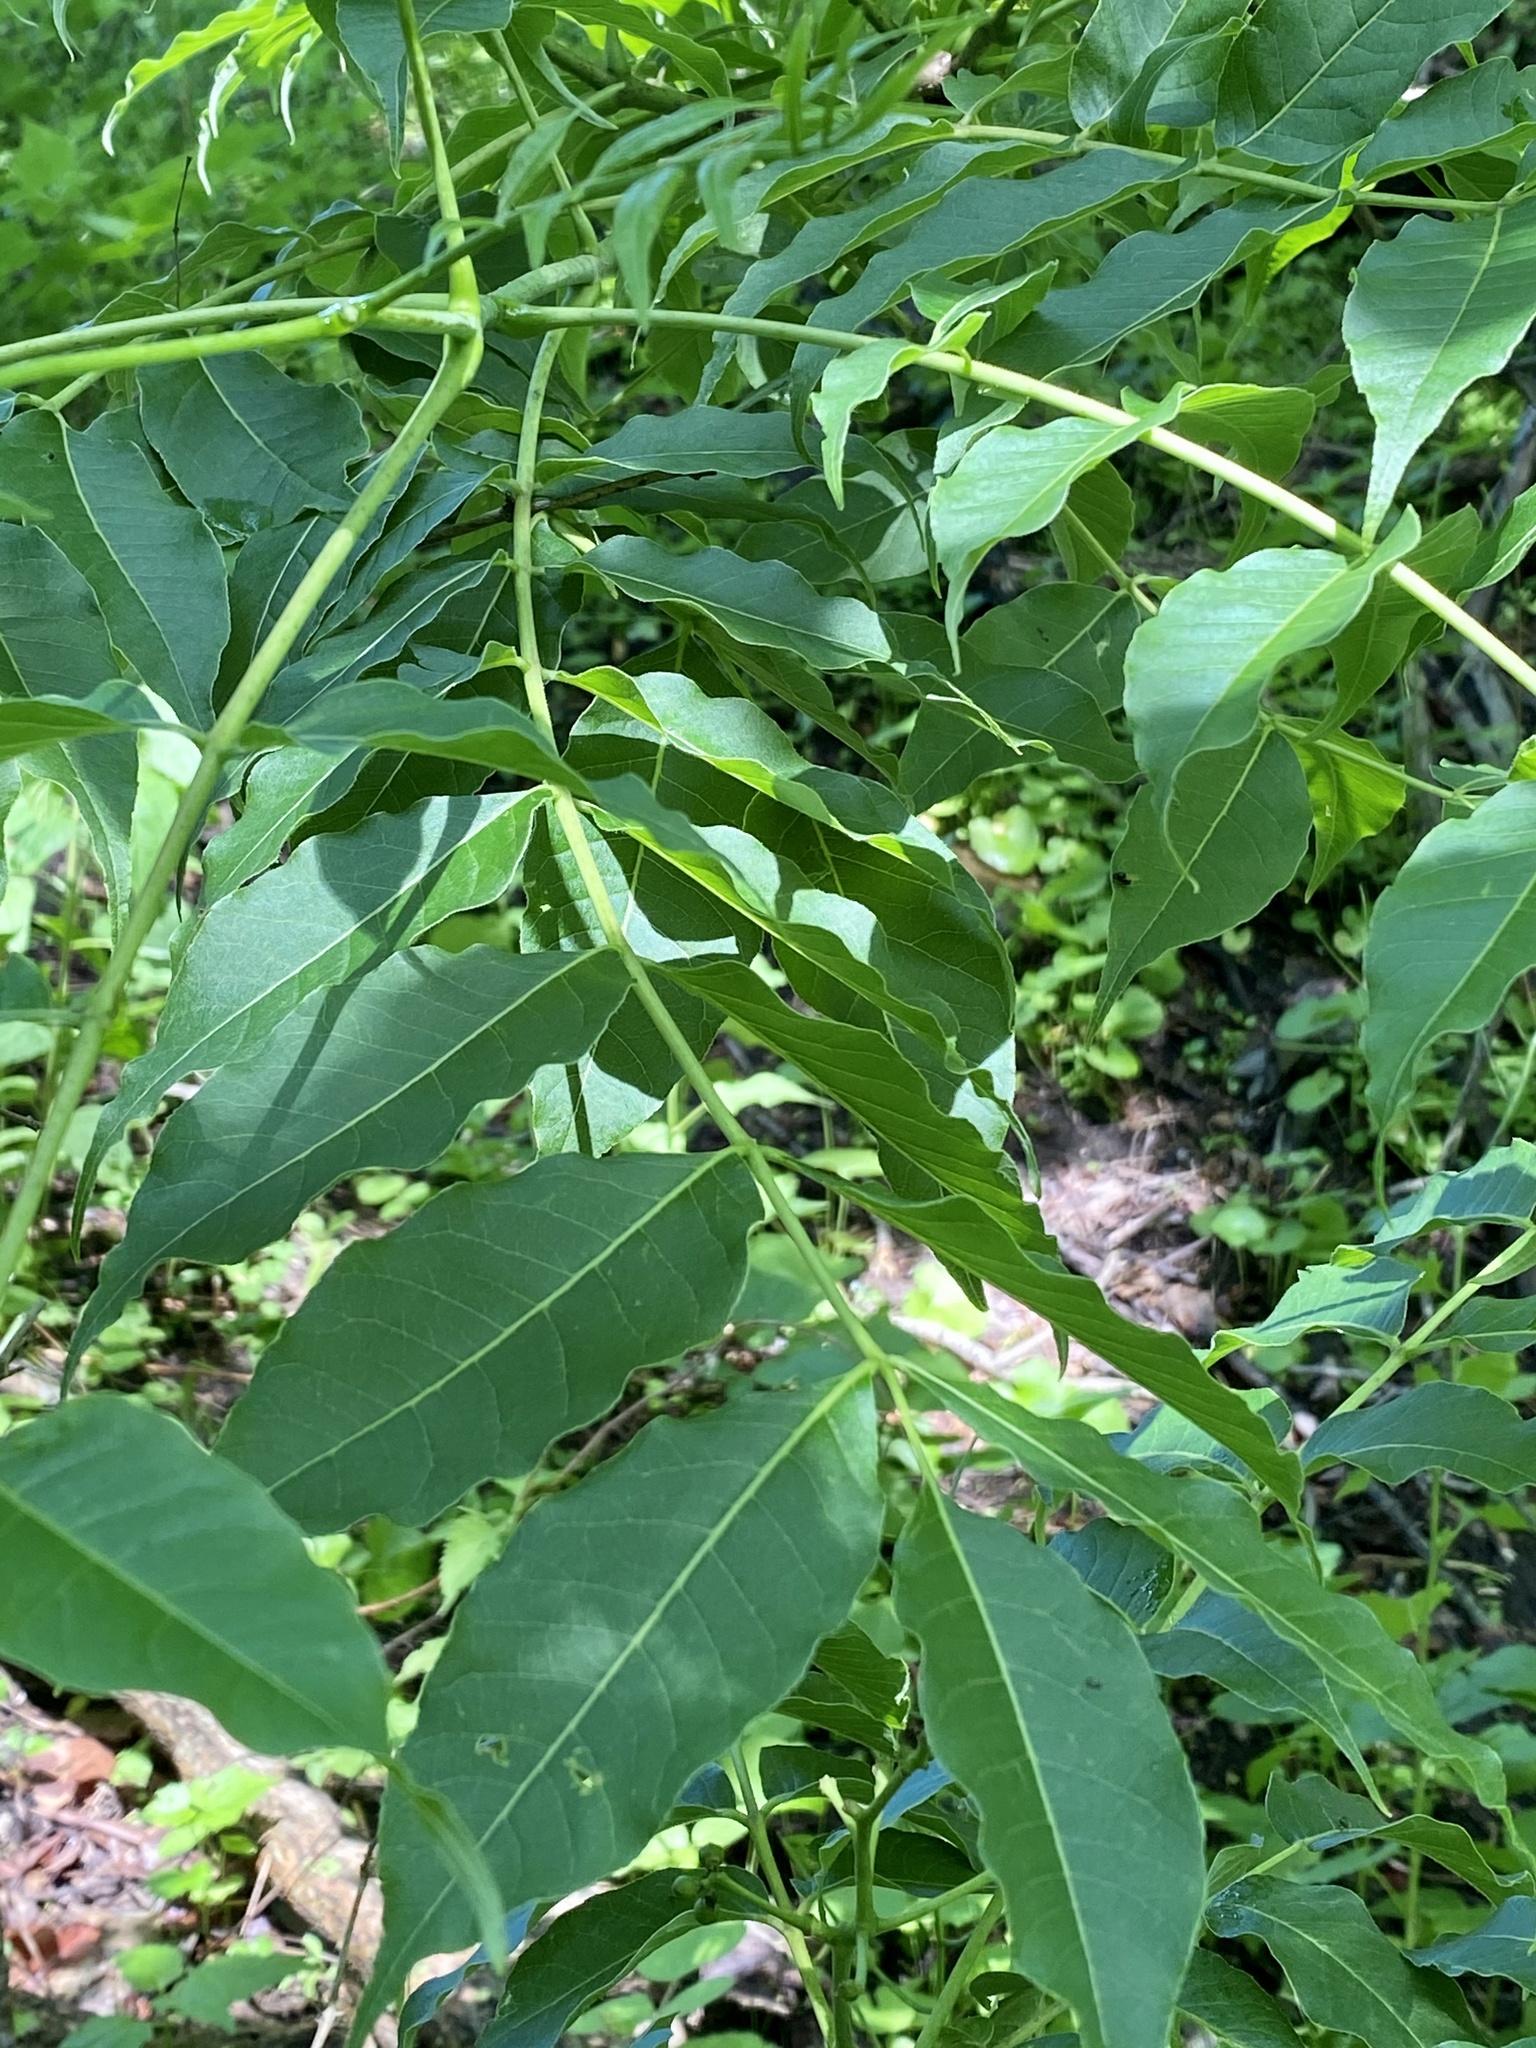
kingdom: Plantae
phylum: Tracheophyta
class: Magnoliopsida
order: Sapindales
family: Rutaceae
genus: Phellodendron
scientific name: Phellodendron amurense
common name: Amur corktree
